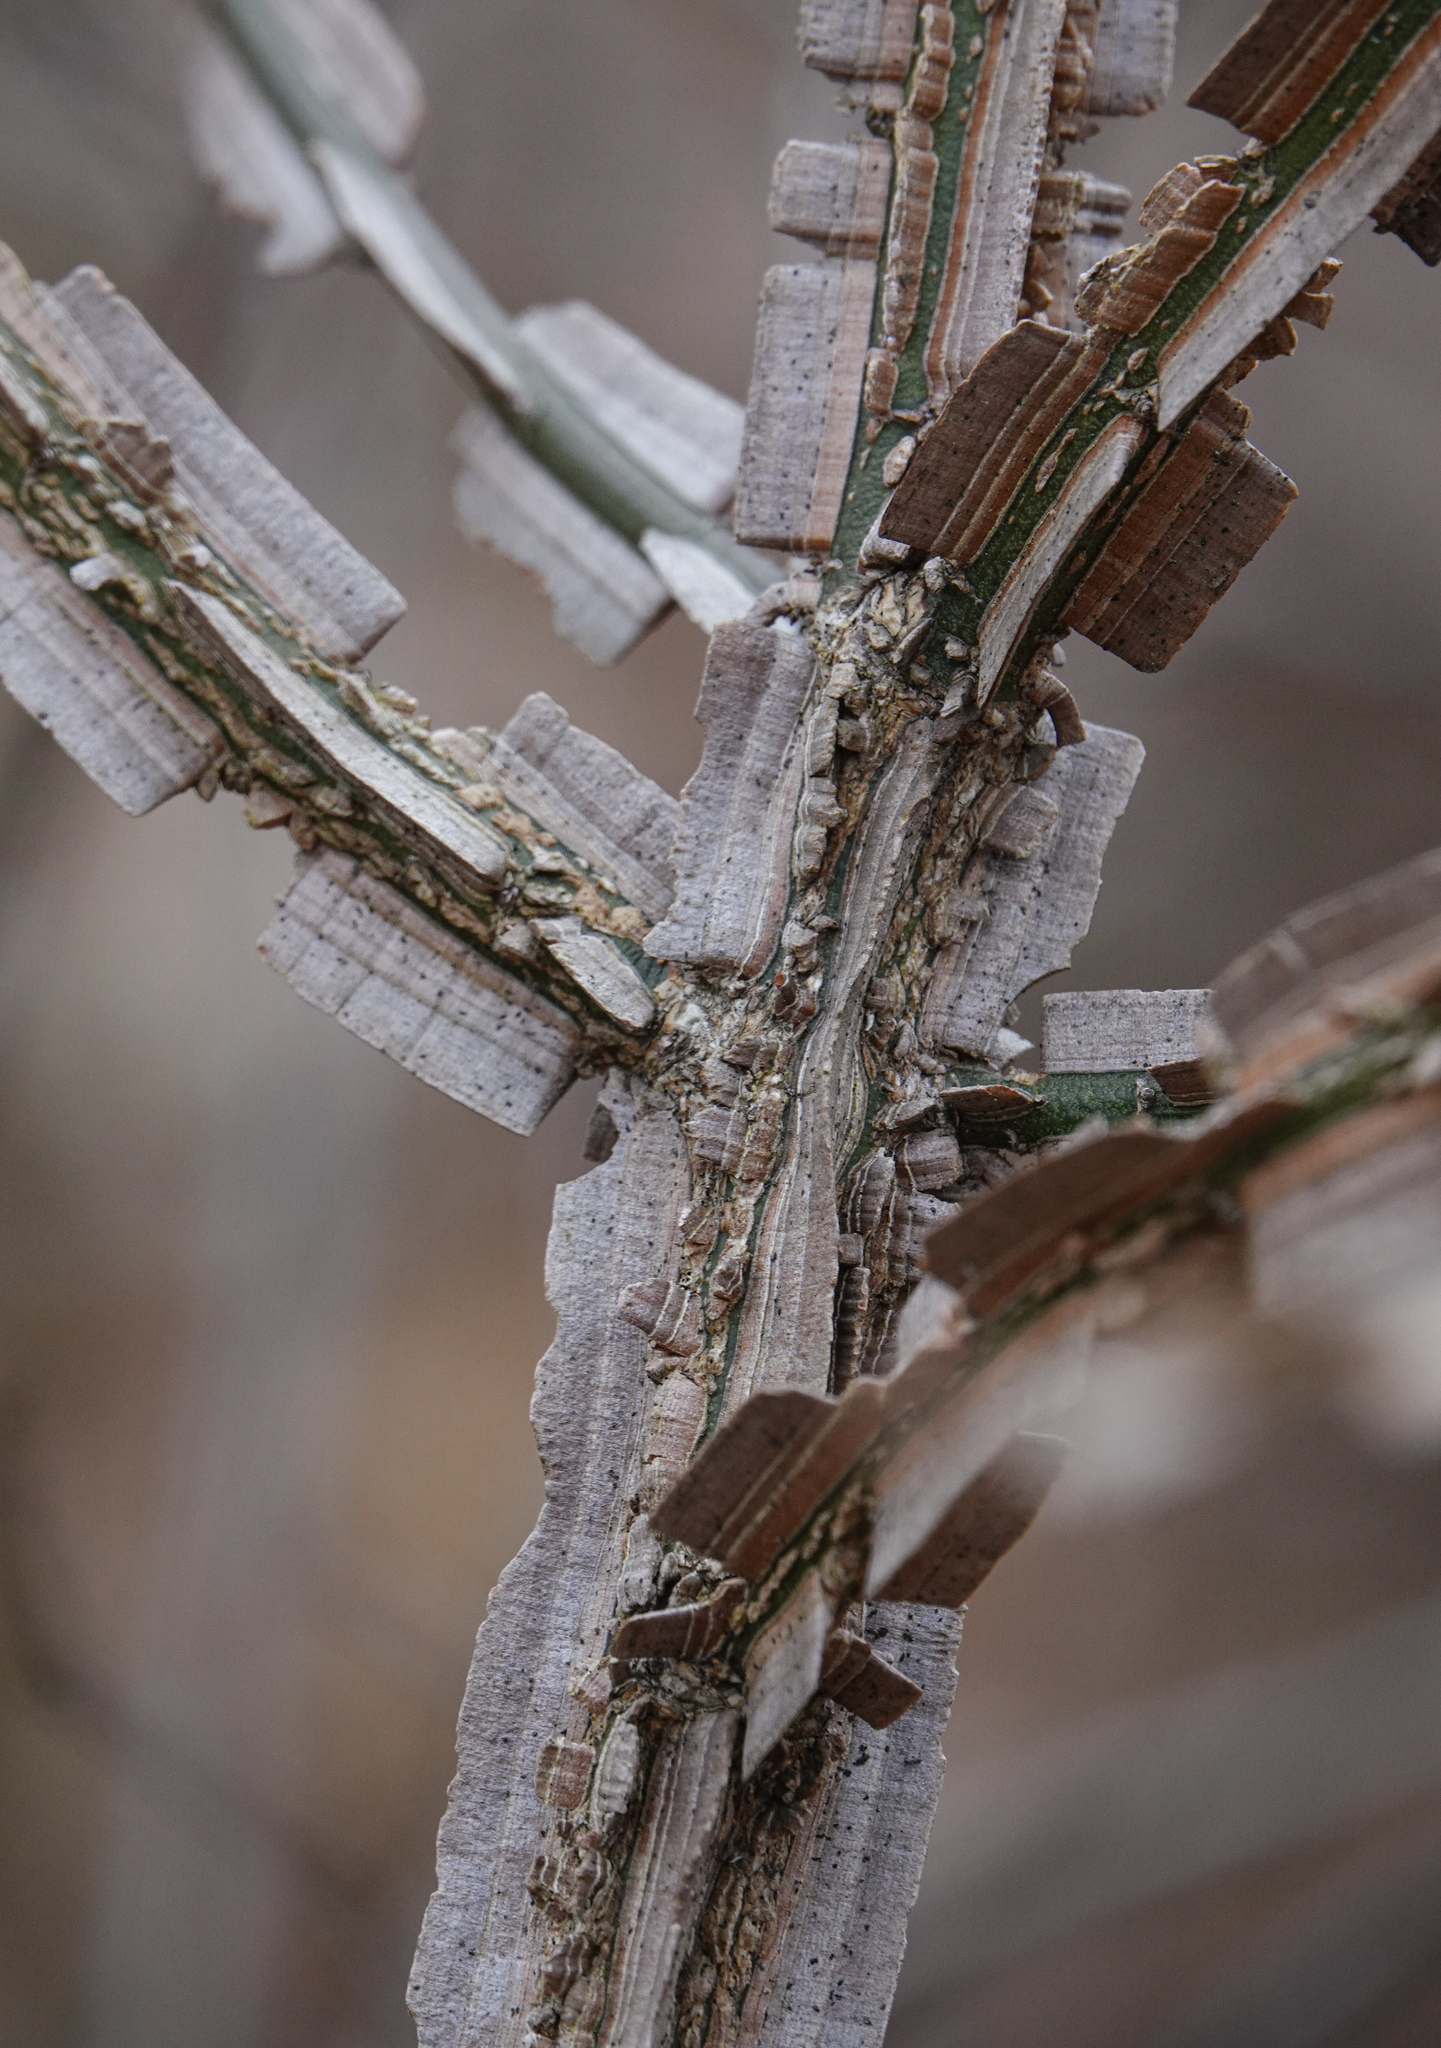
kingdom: Plantae
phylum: Tracheophyta
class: Magnoliopsida
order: Celastrales
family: Celastraceae
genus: Euonymus
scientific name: Euonymus alatus
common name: Winged euonymus
